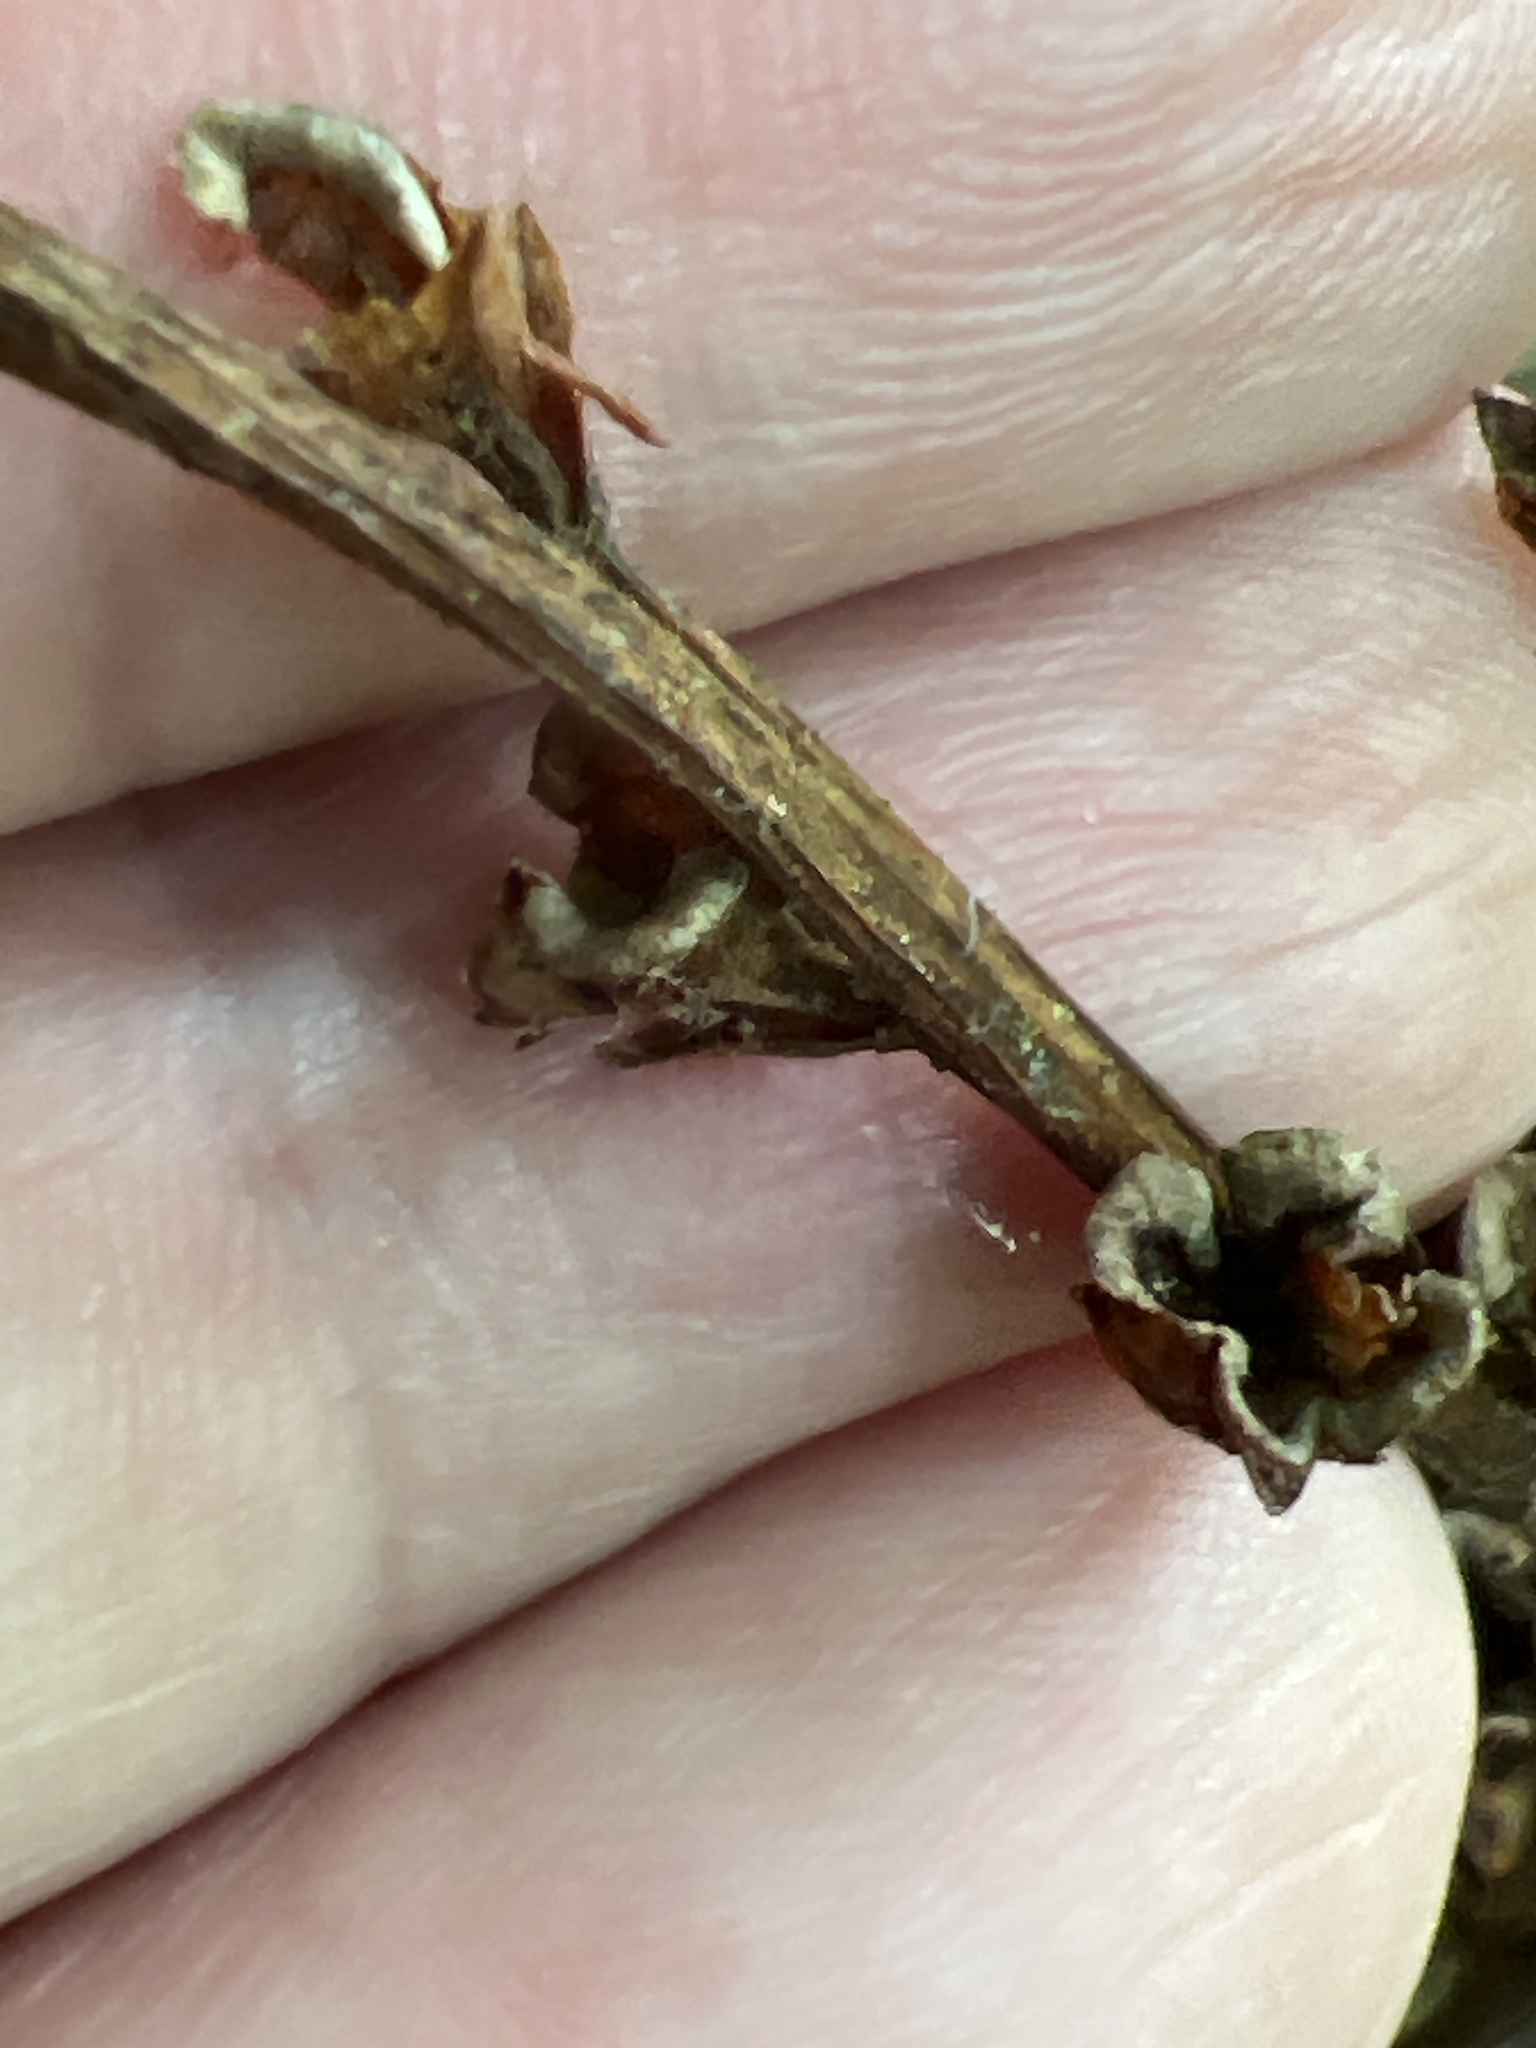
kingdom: Plantae
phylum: Tracheophyta
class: Magnoliopsida
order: Lamiales
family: Orobanchaceae
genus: Epifagus
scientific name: Epifagus virginiana
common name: Beechdrops
